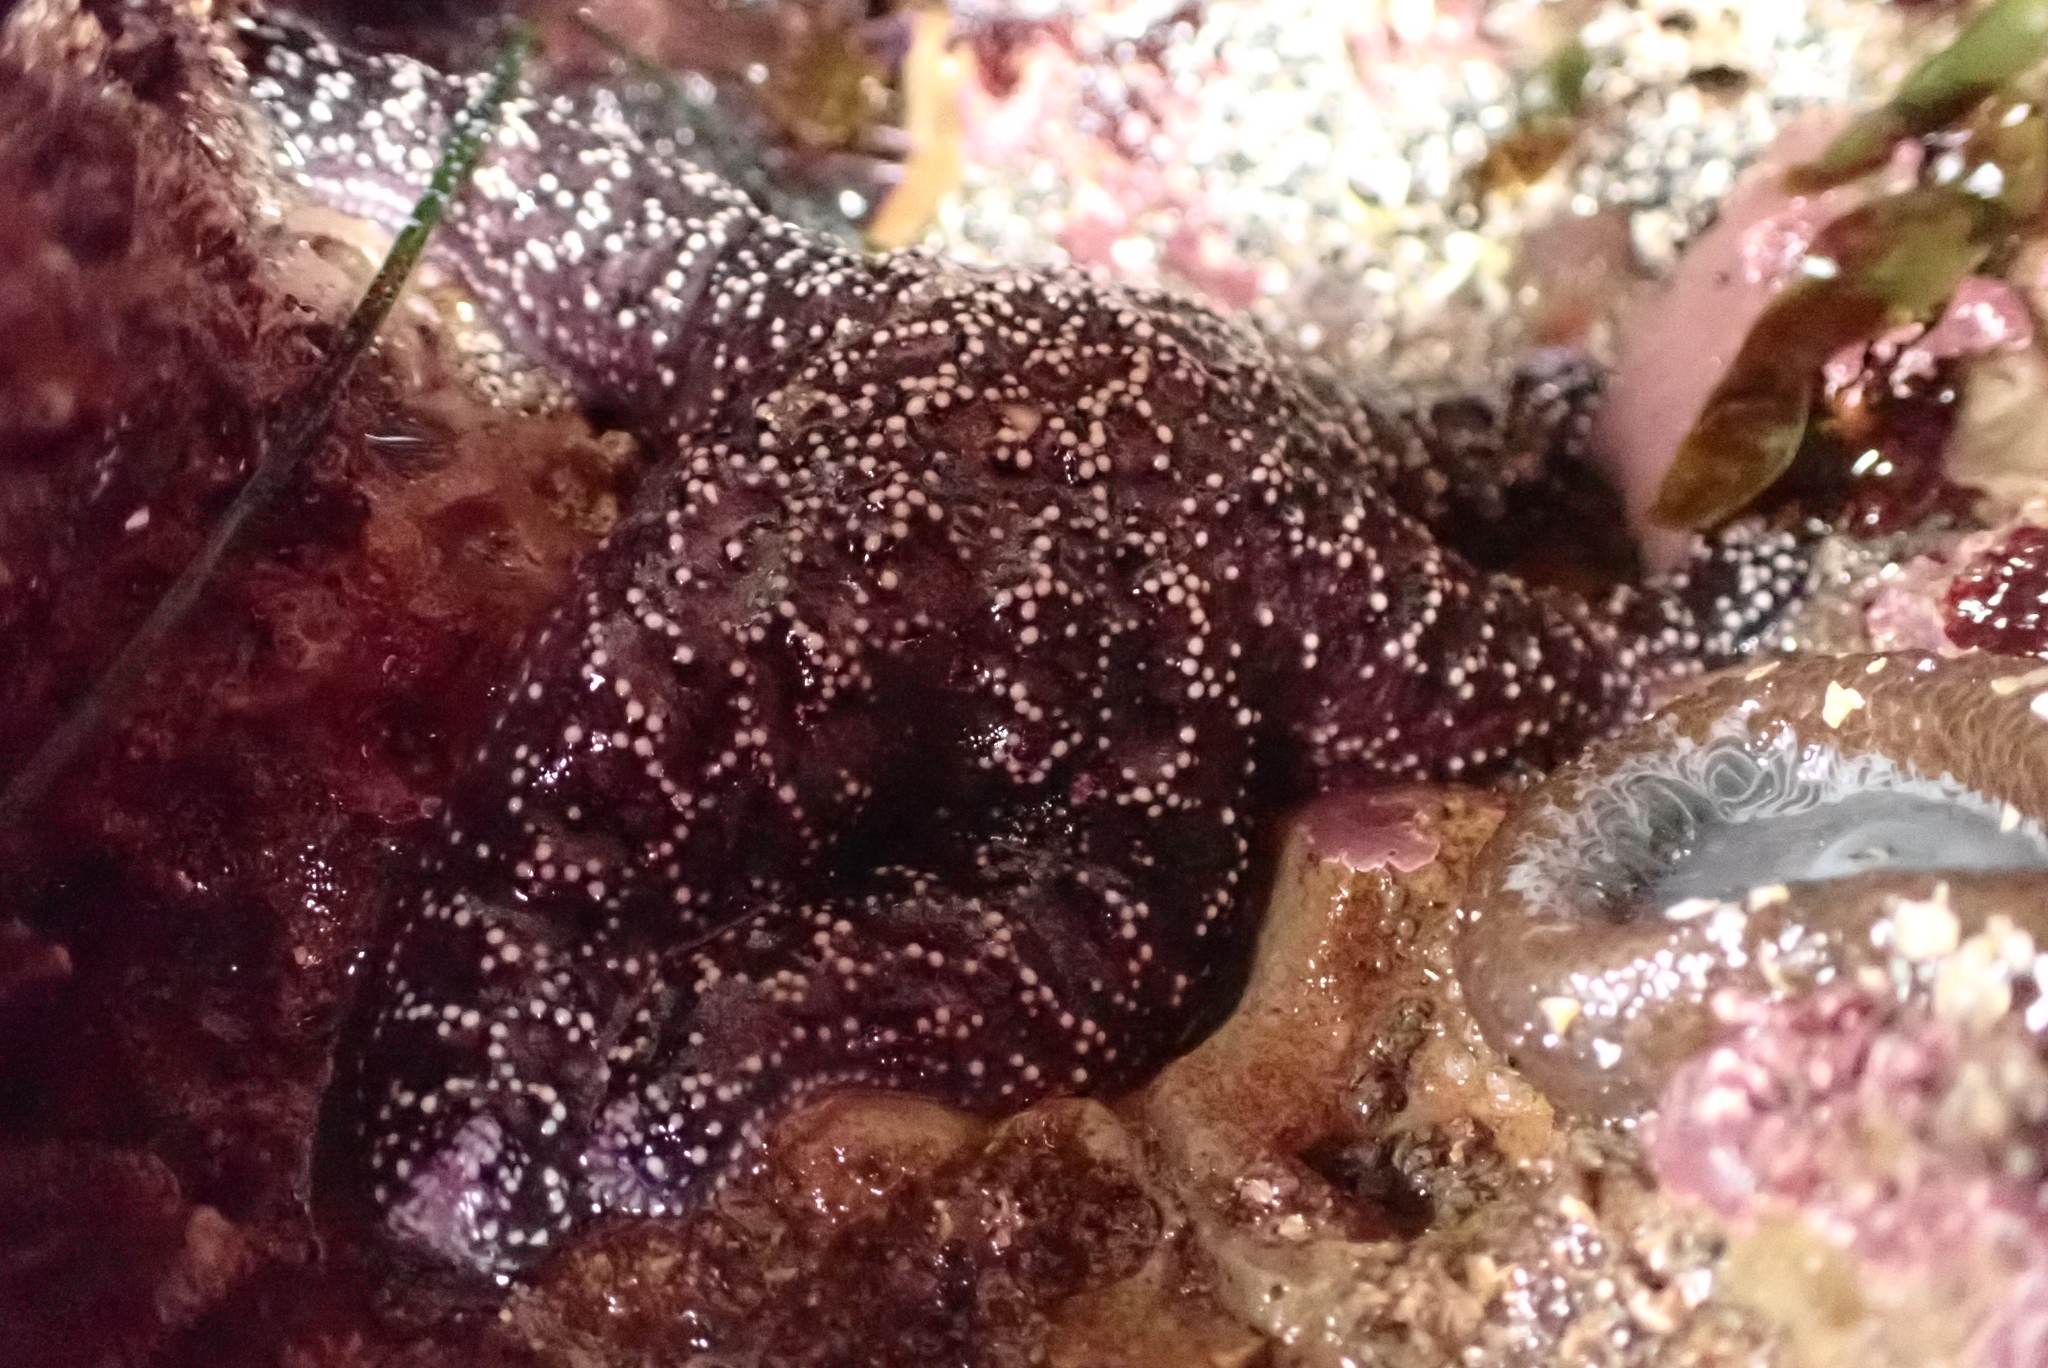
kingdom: Animalia
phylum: Echinodermata
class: Asteroidea
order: Forcipulatida
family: Asteriidae
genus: Pisaster
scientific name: Pisaster ochraceus
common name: Ochre stars
